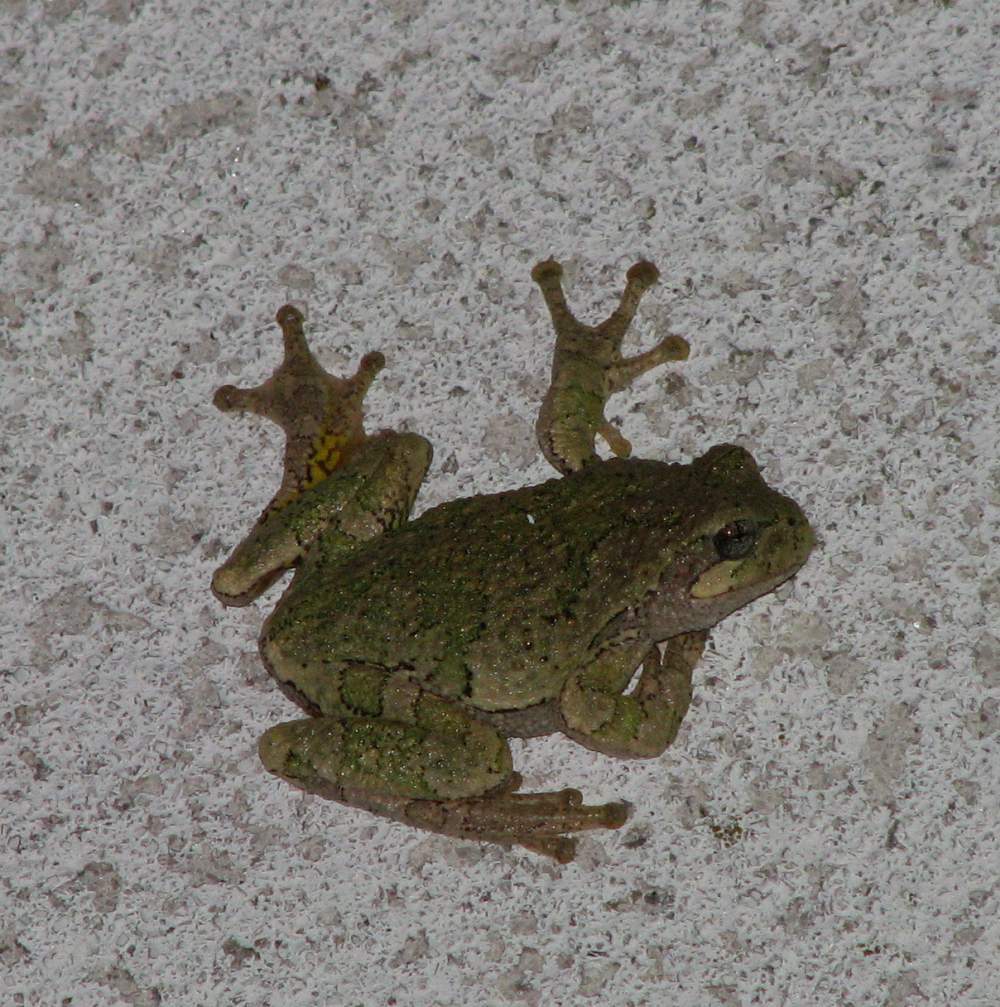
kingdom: Animalia
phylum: Chordata
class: Amphibia
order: Anura
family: Hylidae
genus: Dryophytes
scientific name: Dryophytes versicolor
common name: Gray treefrog
